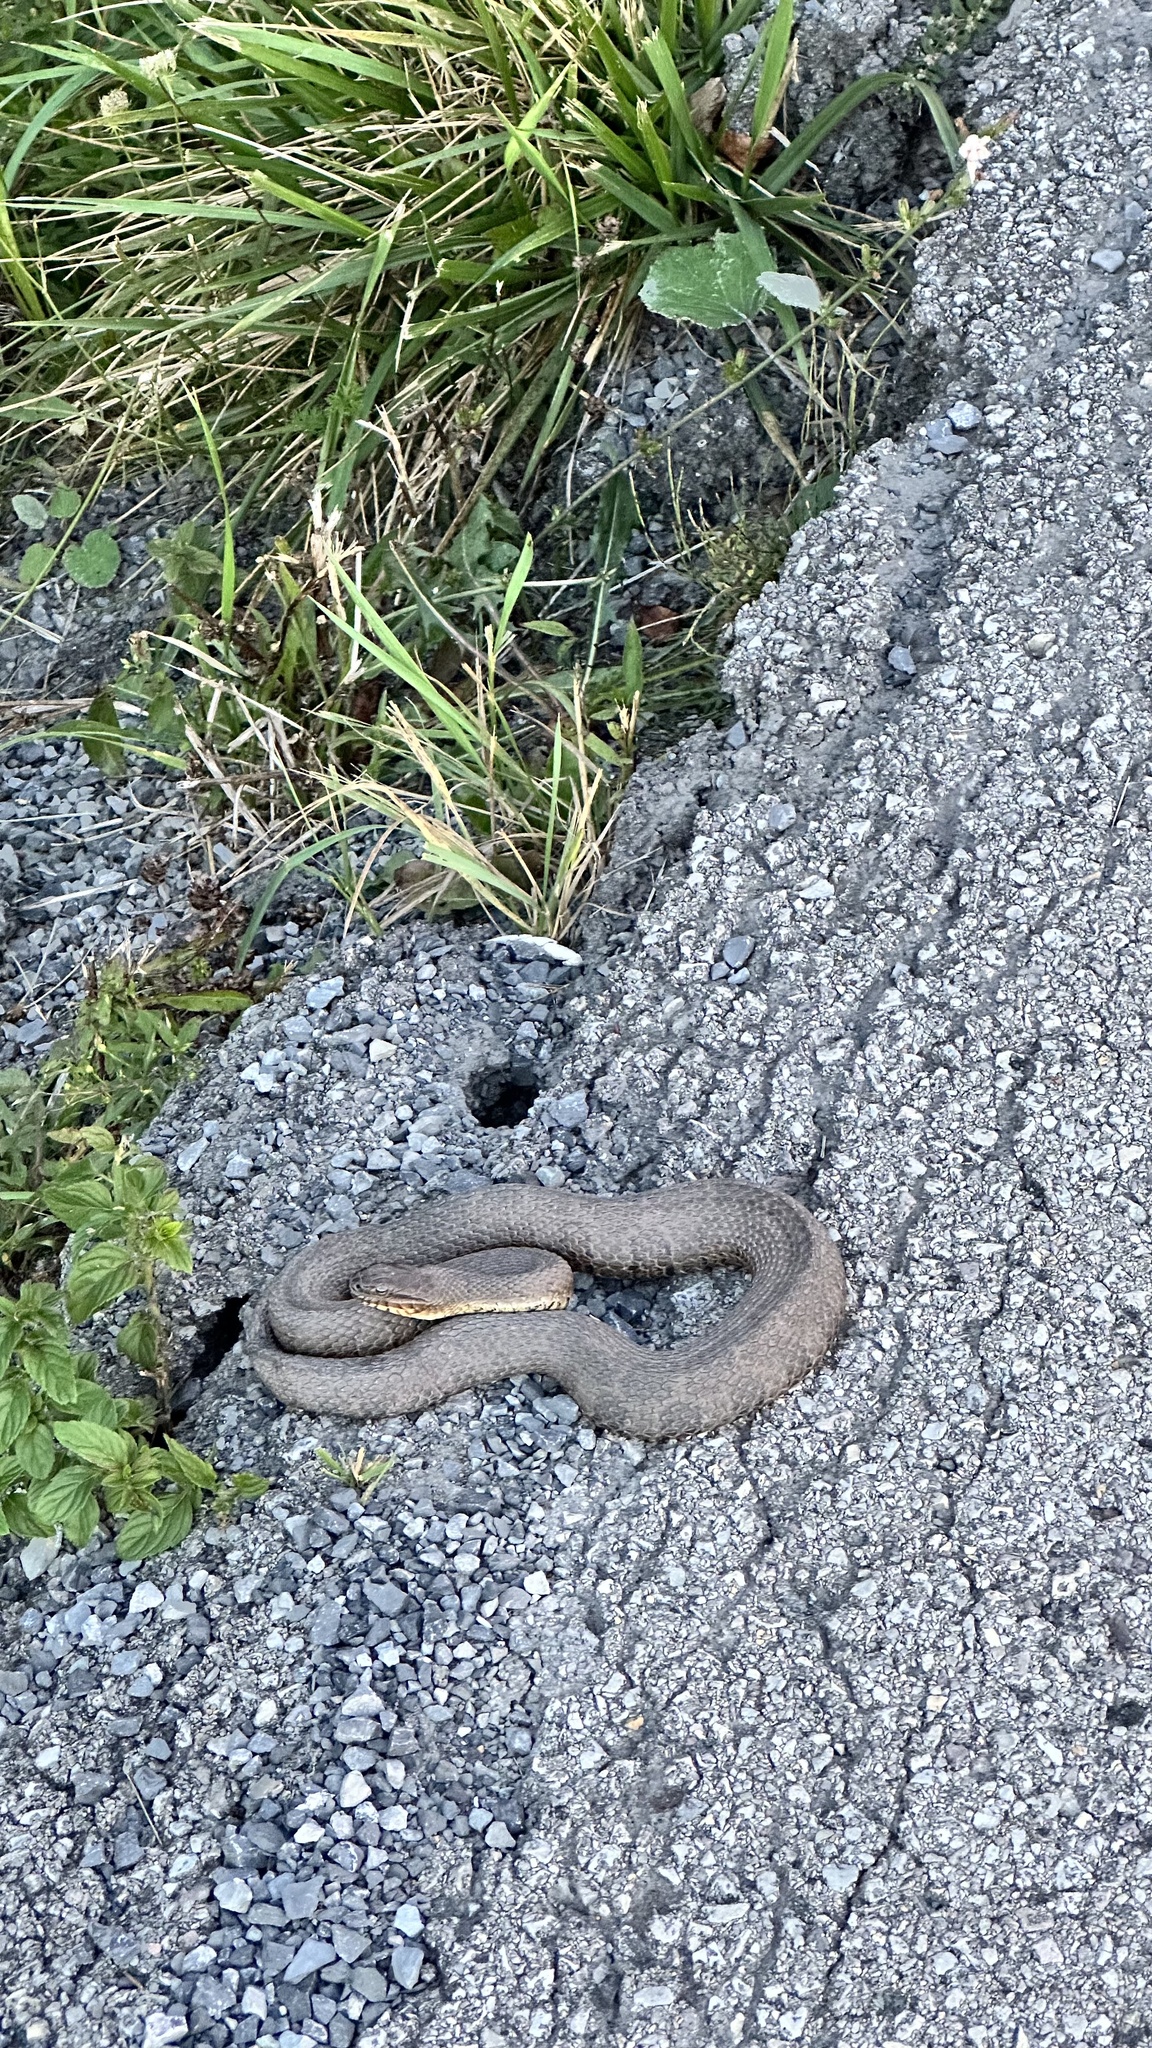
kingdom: Animalia
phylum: Chordata
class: Squamata
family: Colubridae
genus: Nerodia
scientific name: Nerodia sipedon
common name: Northern water snake
